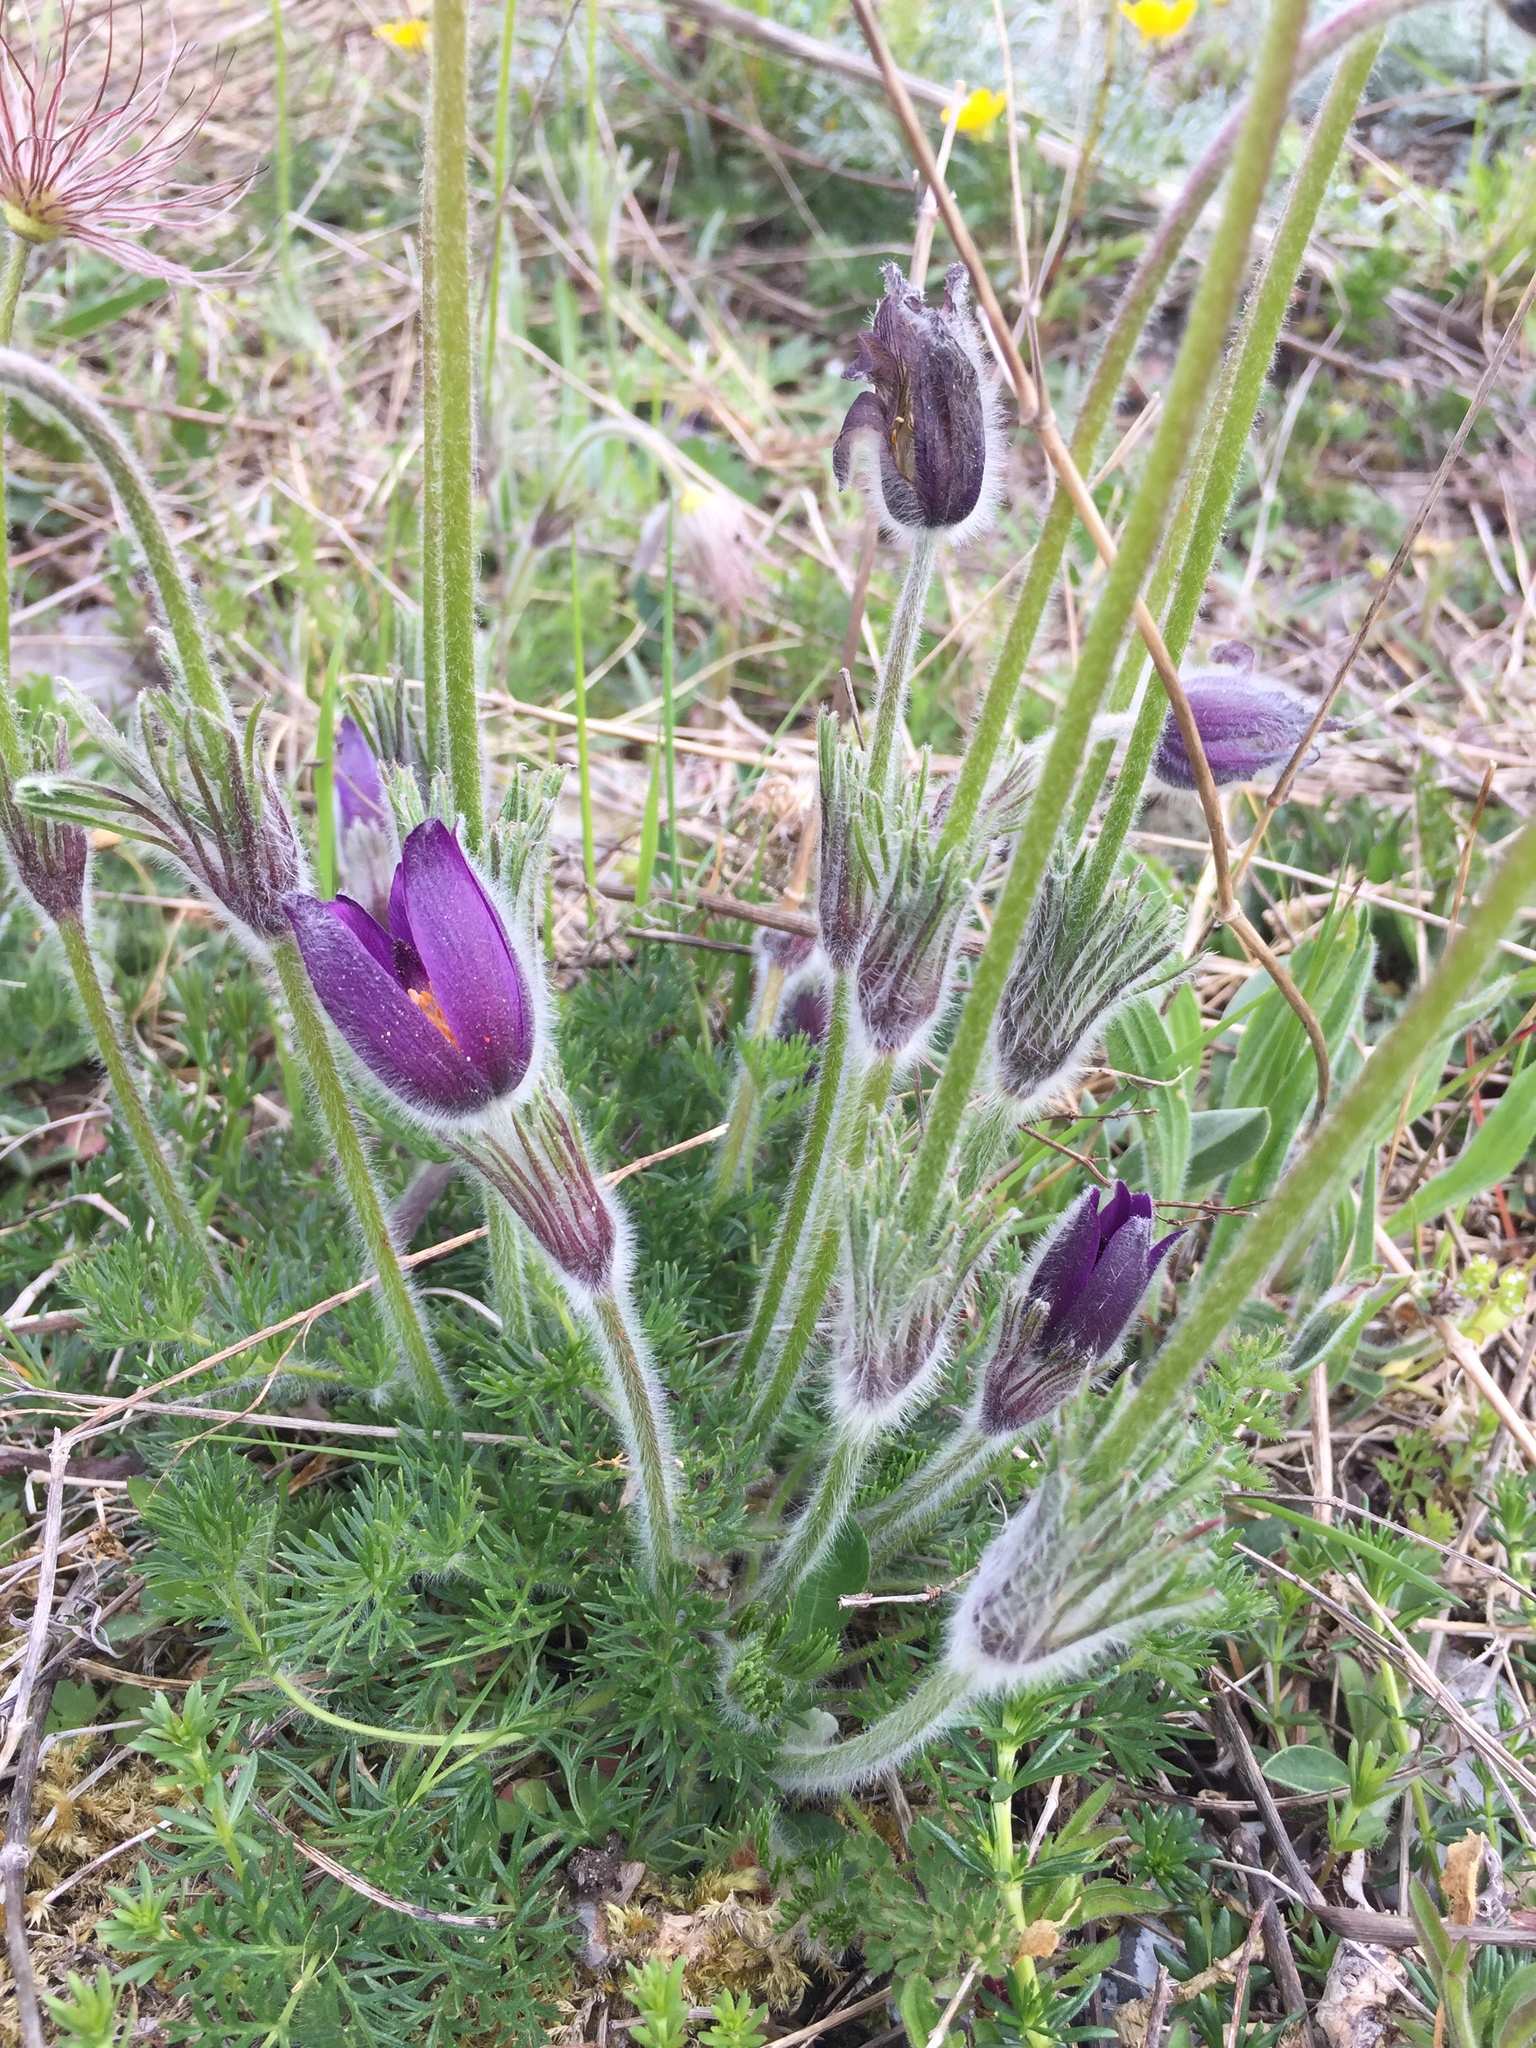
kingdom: Plantae
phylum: Tracheophyta
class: Magnoliopsida
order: Ranunculales
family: Ranunculaceae
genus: Pulsatilla
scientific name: Pulsatilla vulgaris
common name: Pasqueflower
